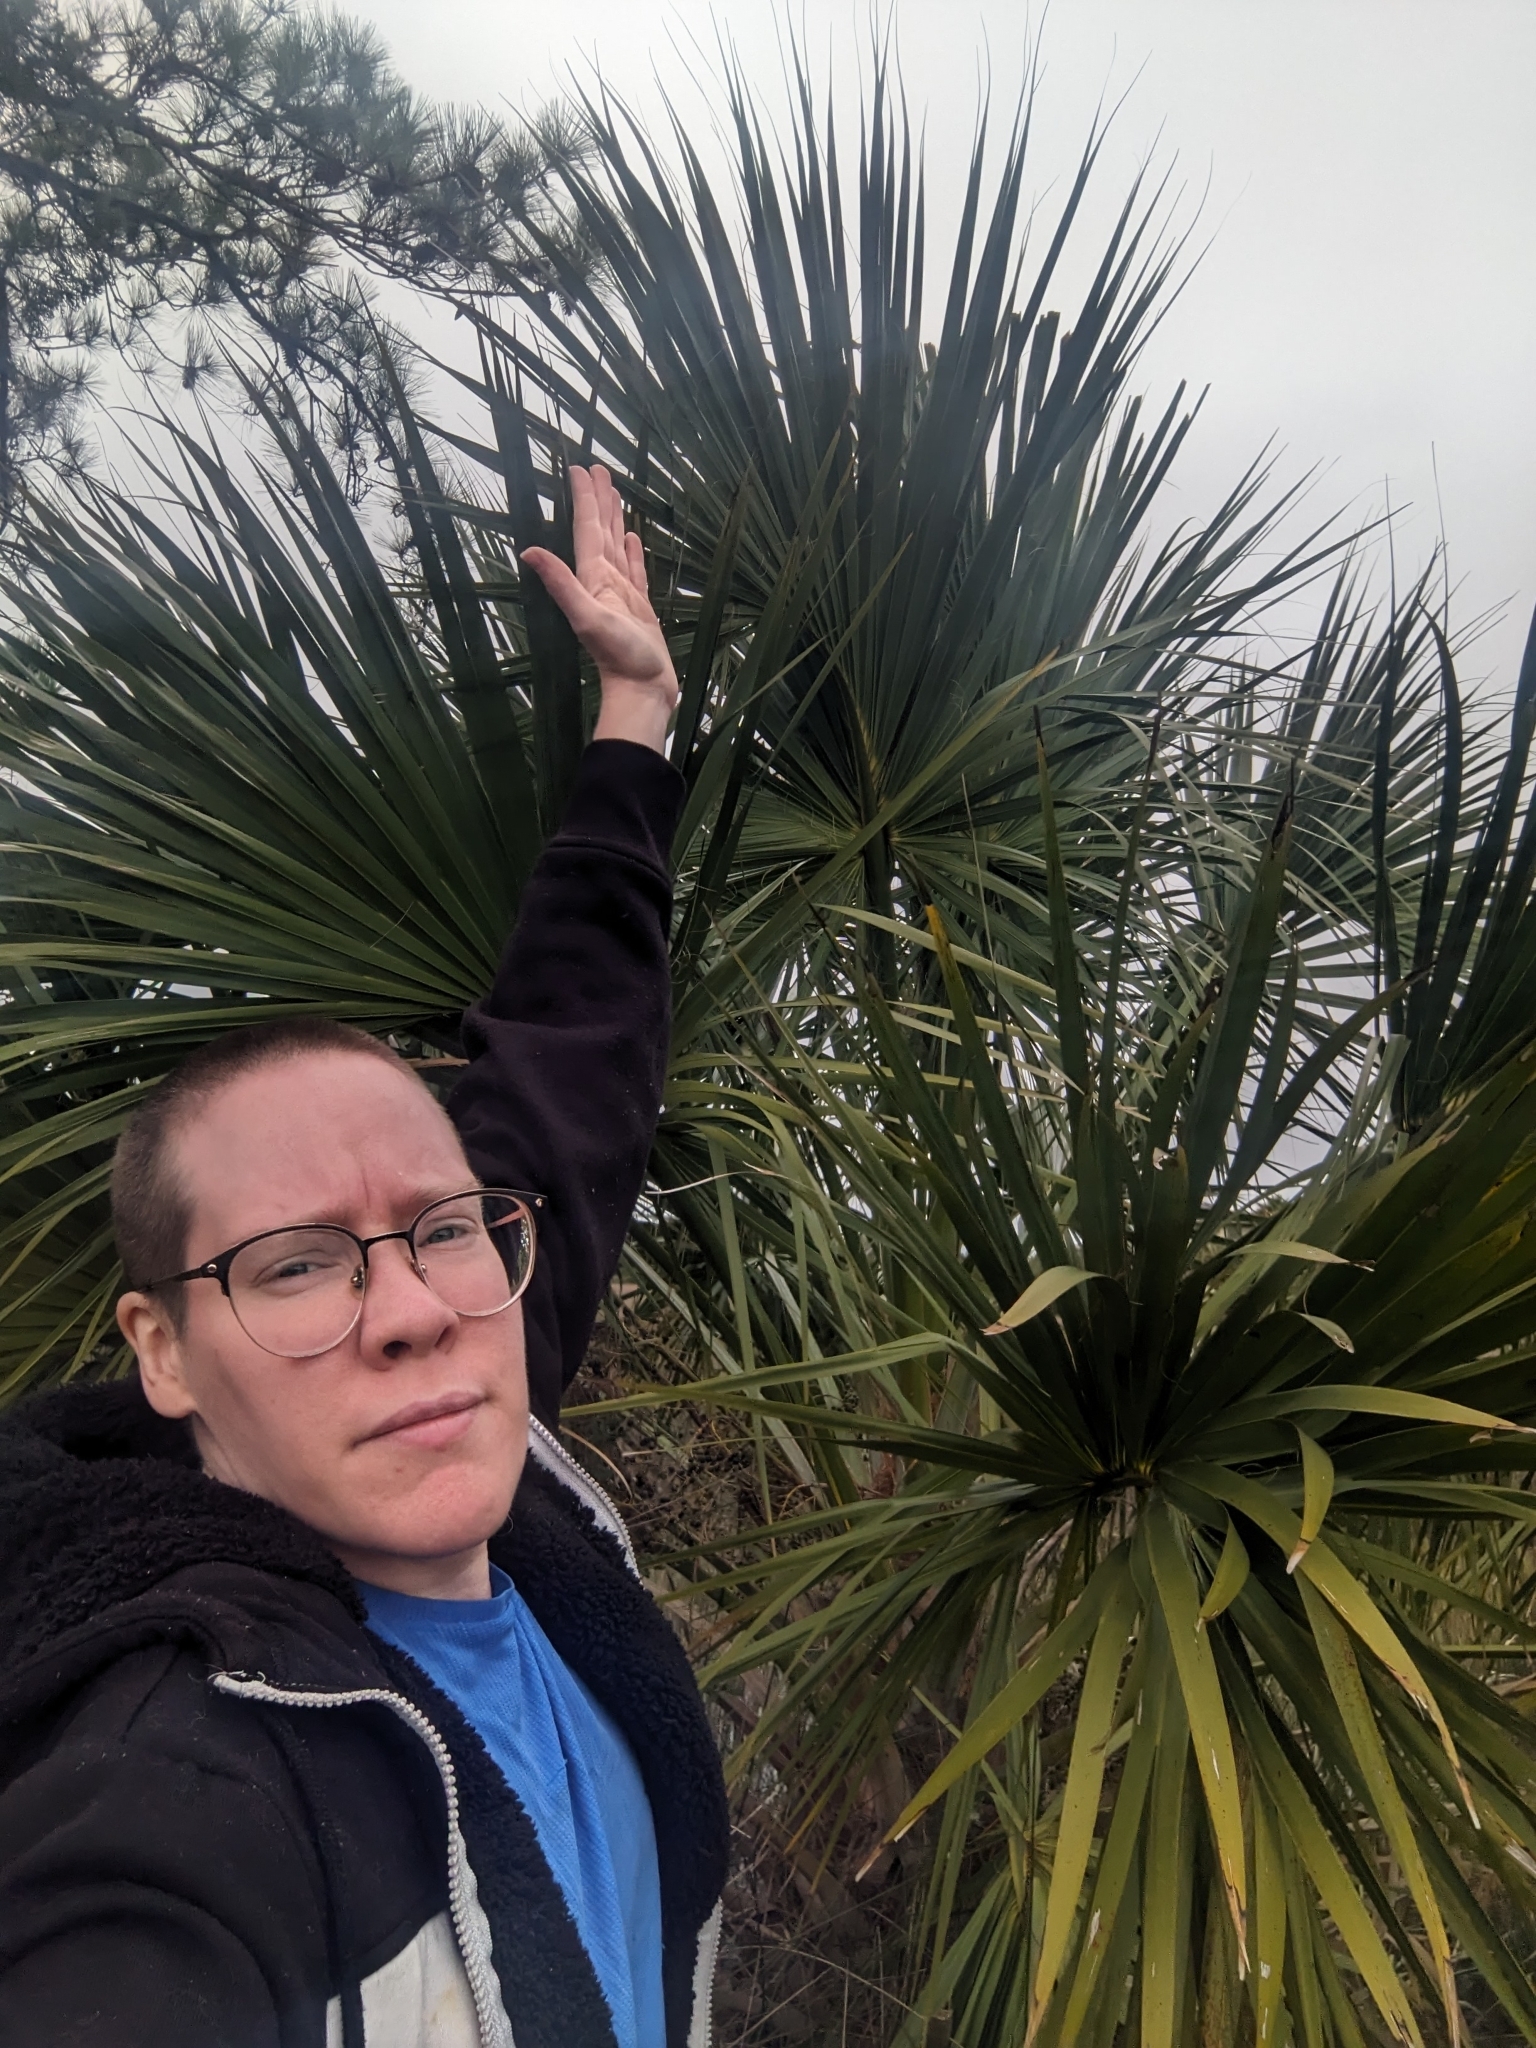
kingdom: Plantae
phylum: Tracheophyta
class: Liliopsida
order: Arecales
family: Arecaceae
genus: Sabal
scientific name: Sabal palmetto
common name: Blue palmetto
